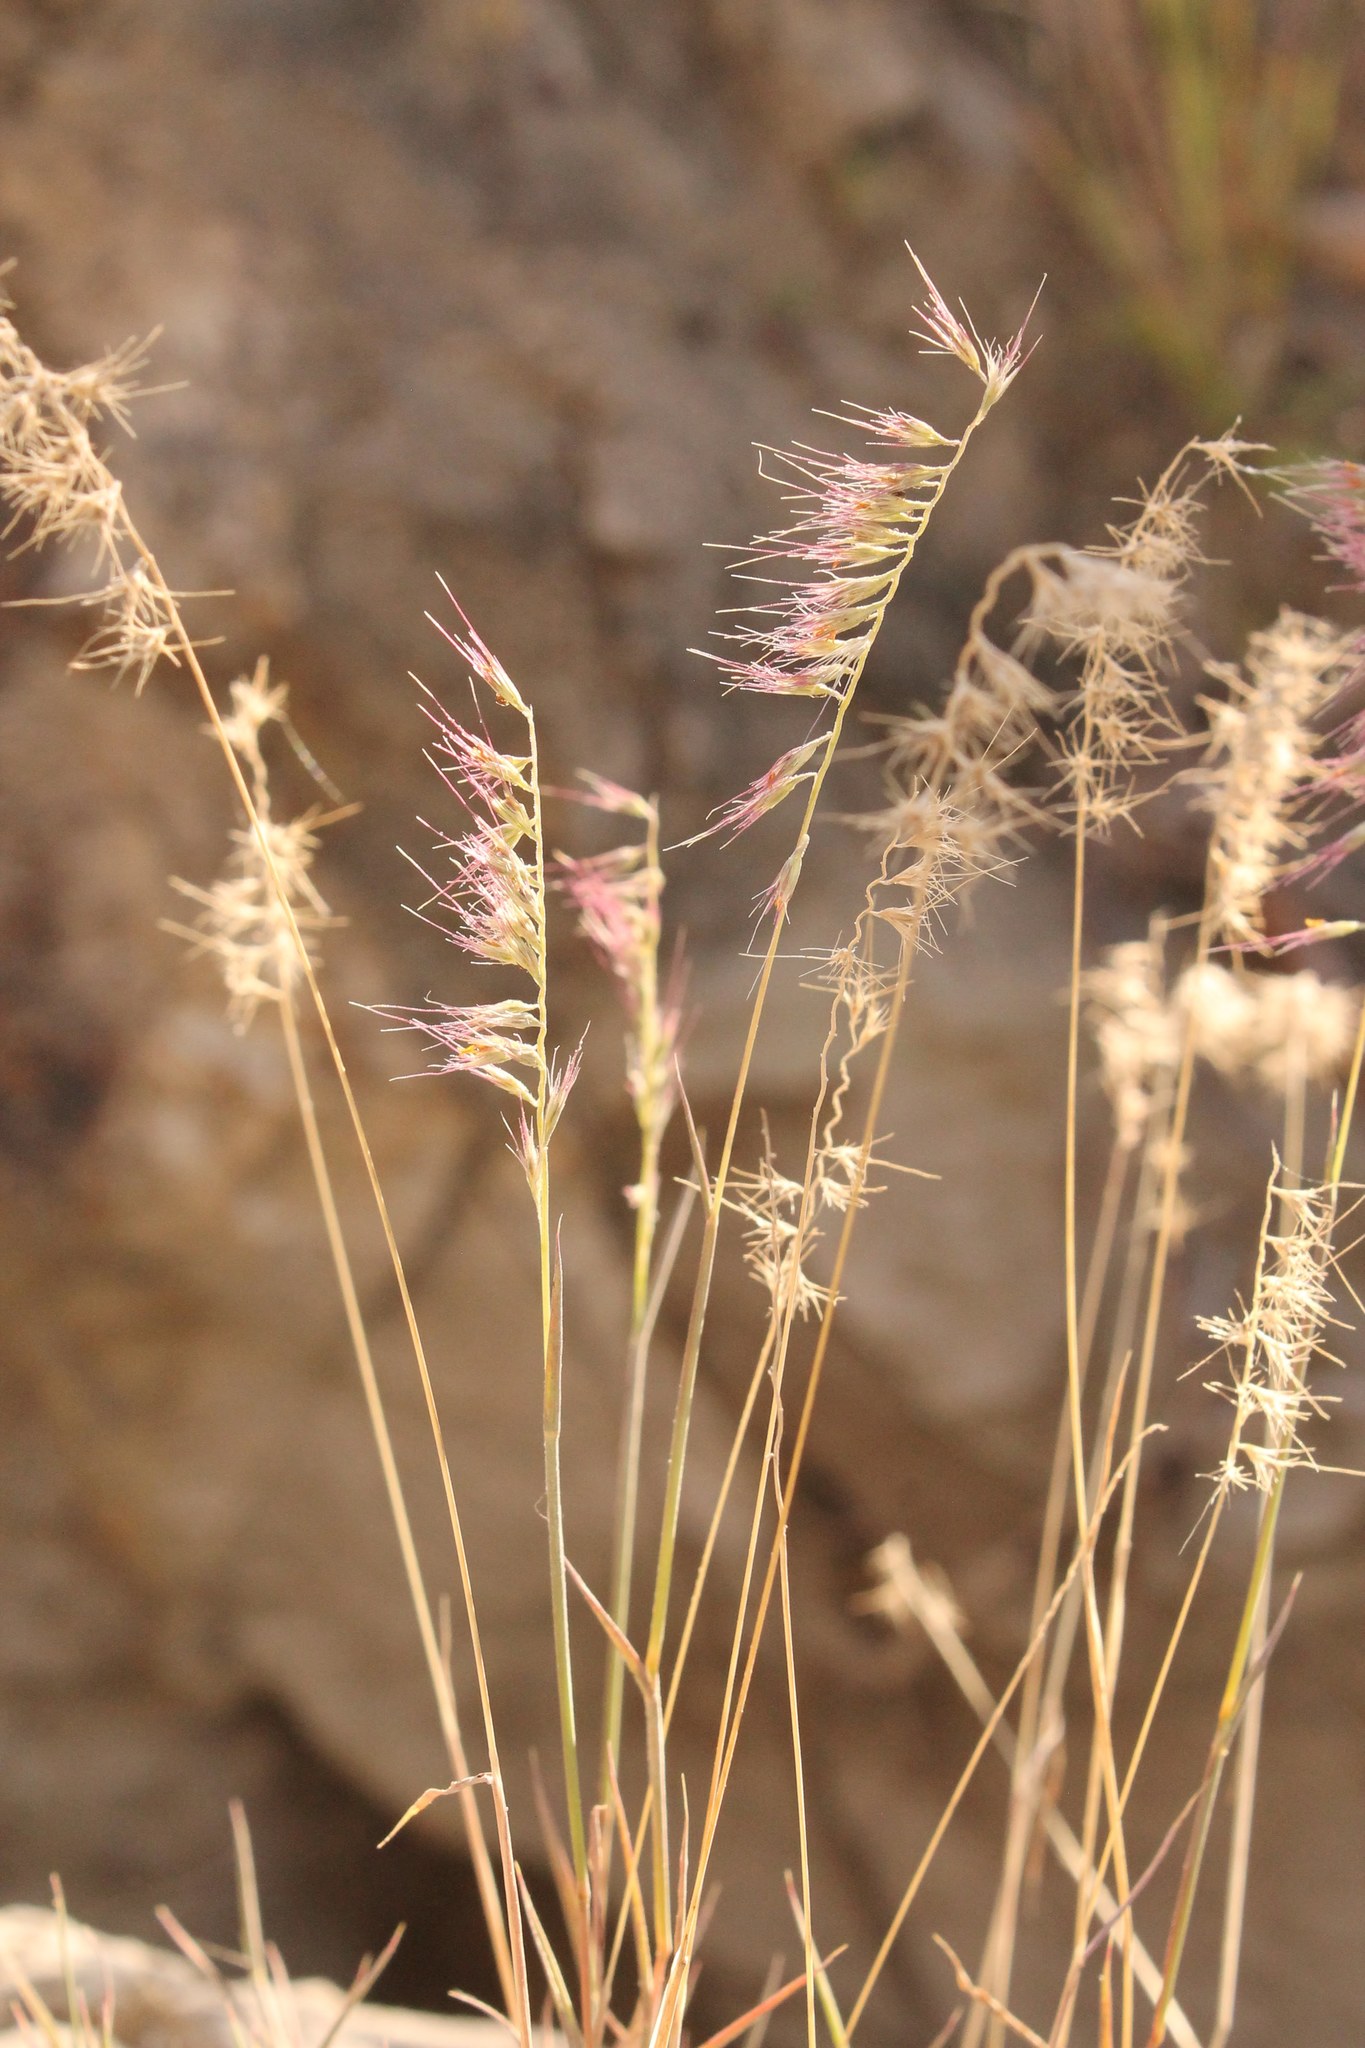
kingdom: Plantae
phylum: Tracheophyta
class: Liliopsida
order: Poales
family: Poaceae
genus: Muhlenbergia
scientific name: Muhlenbergia cenchroides
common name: Relaxgrass
